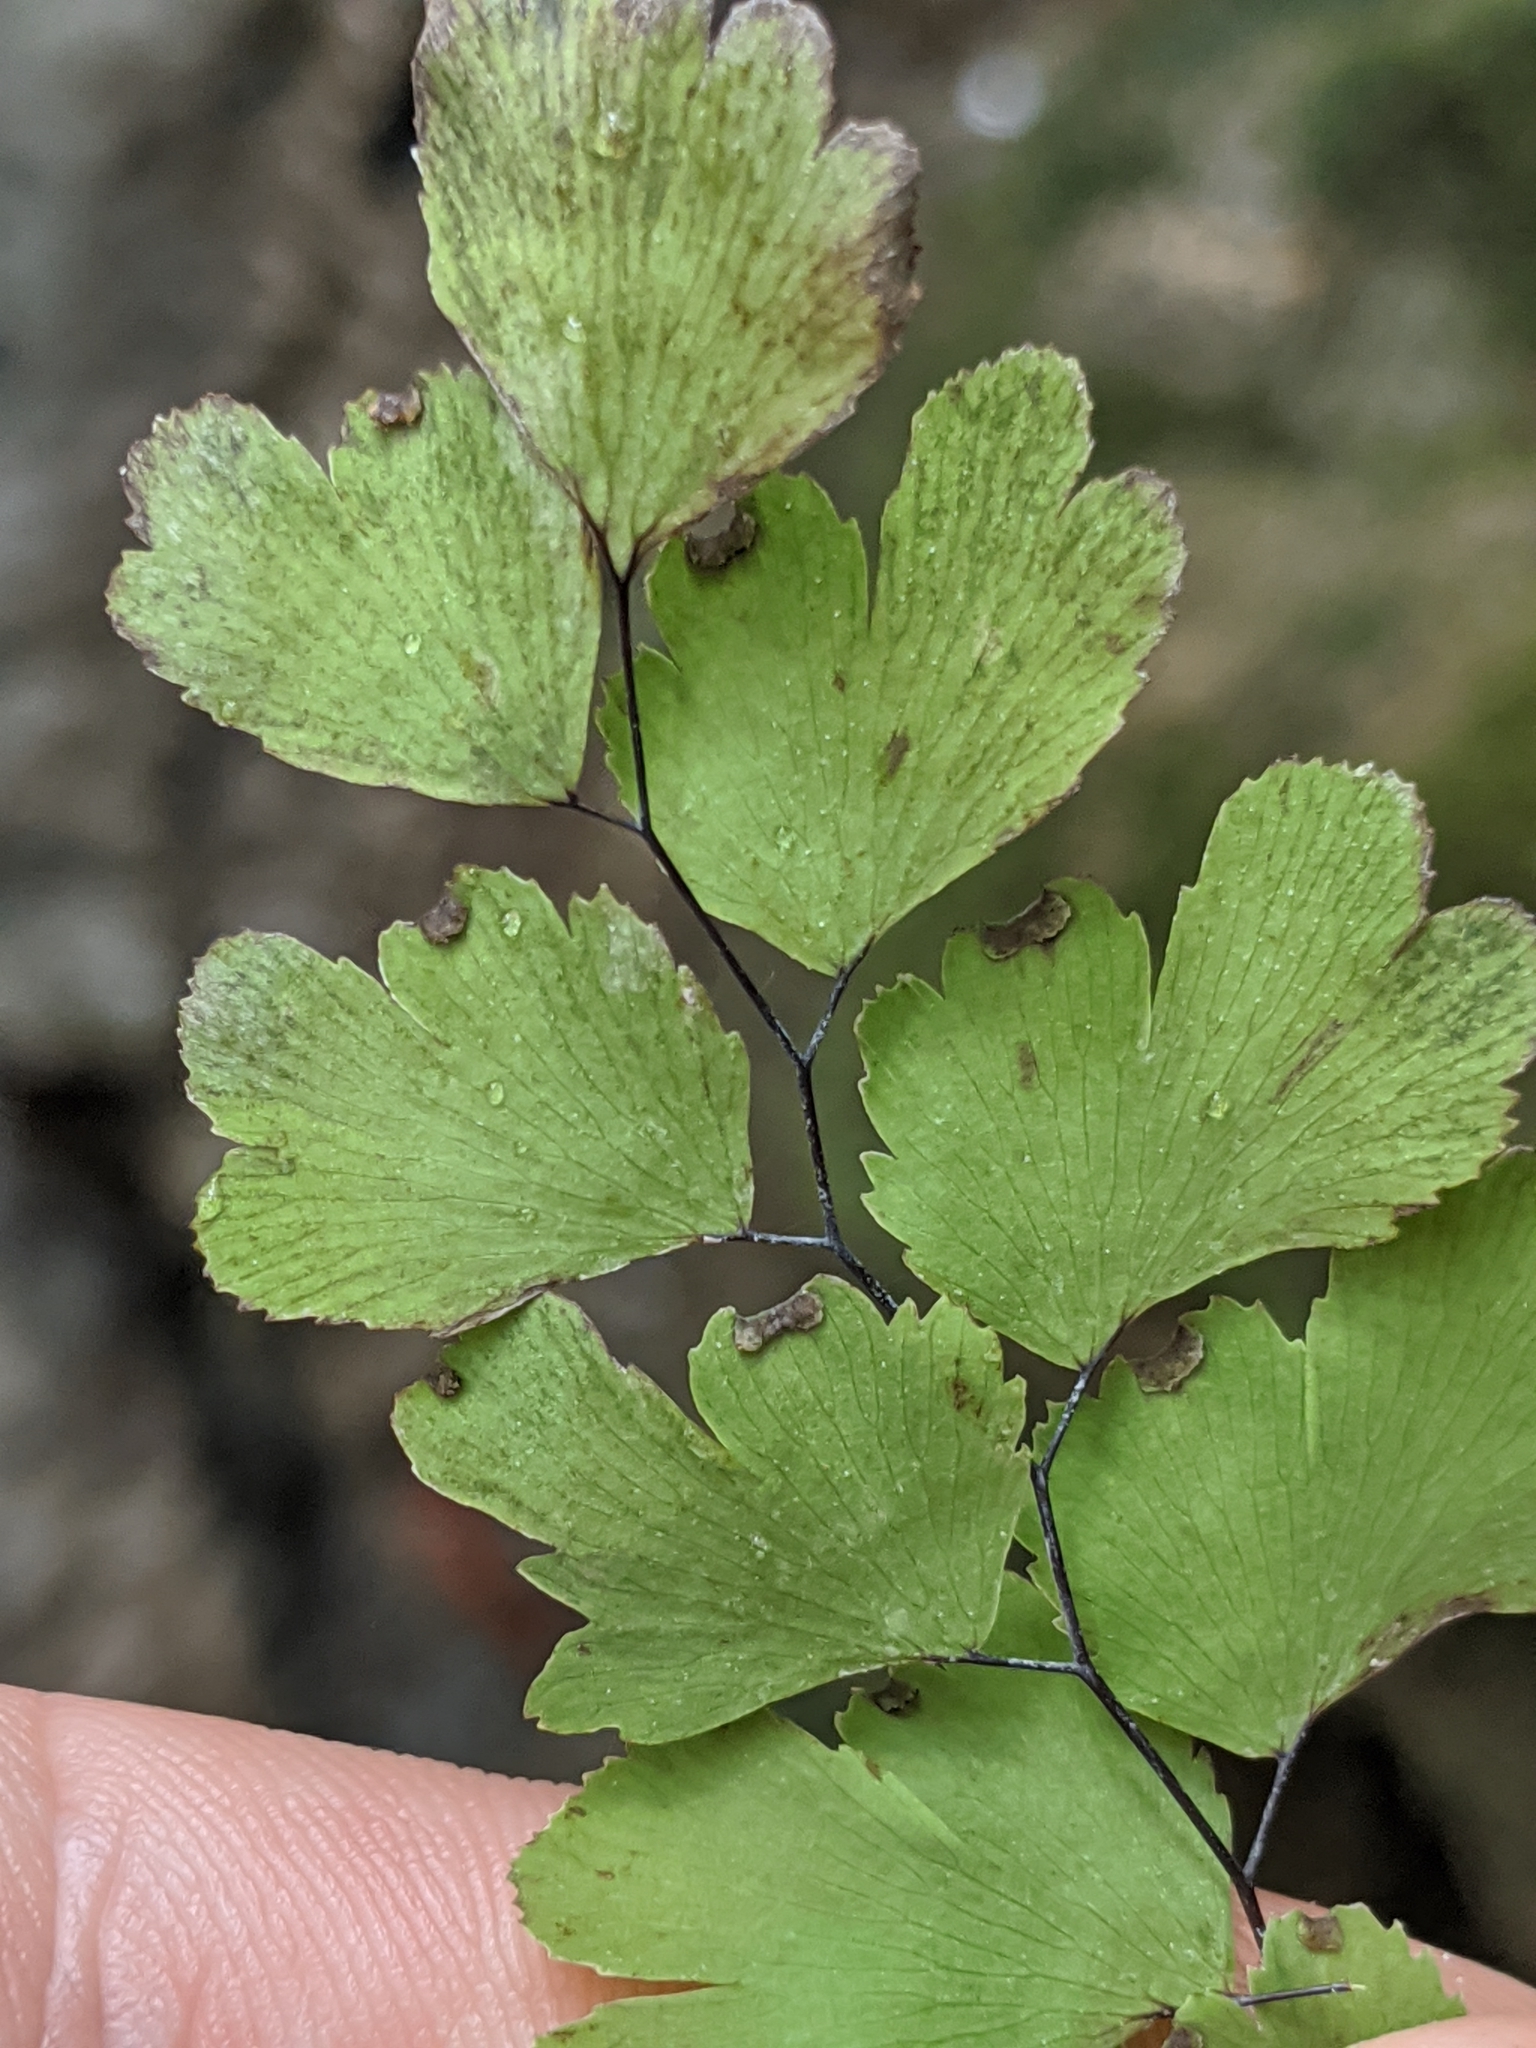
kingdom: Plantae
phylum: Tracheophyta
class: Polypodiopsida
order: Polypodiales
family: Pteridaceae
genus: Adiantum
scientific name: Adiantum capillus-veneris
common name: Maidenhair fern
